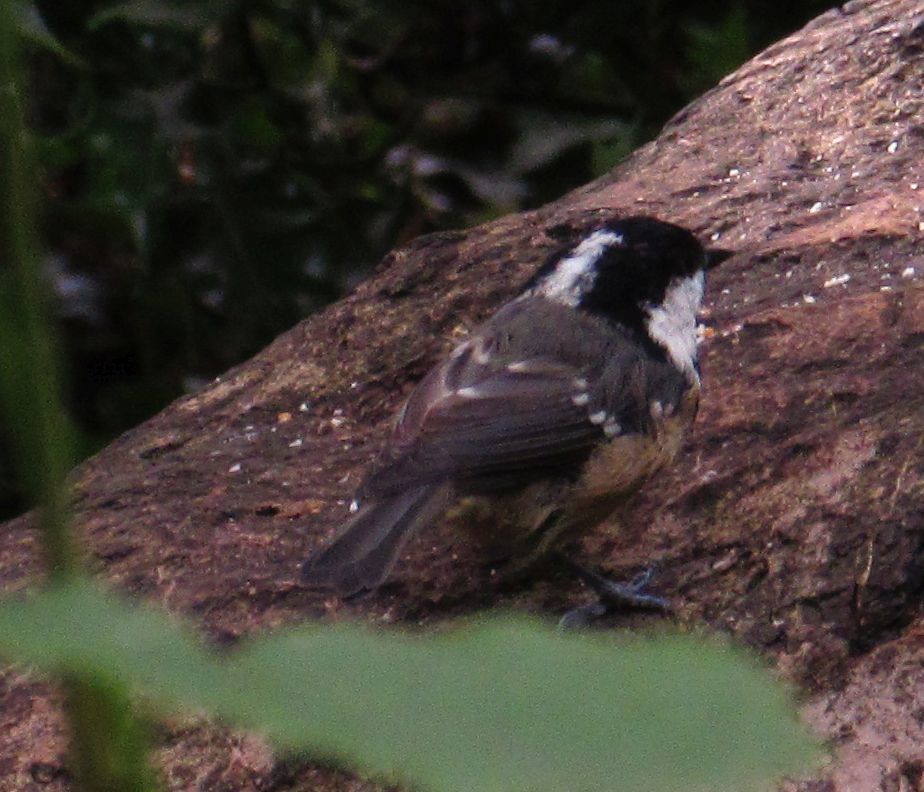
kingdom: Animalia
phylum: Chordata
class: Aves
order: Passeriformes
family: Paridae
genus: Periparus
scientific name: Periparus ater
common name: Coal tit
